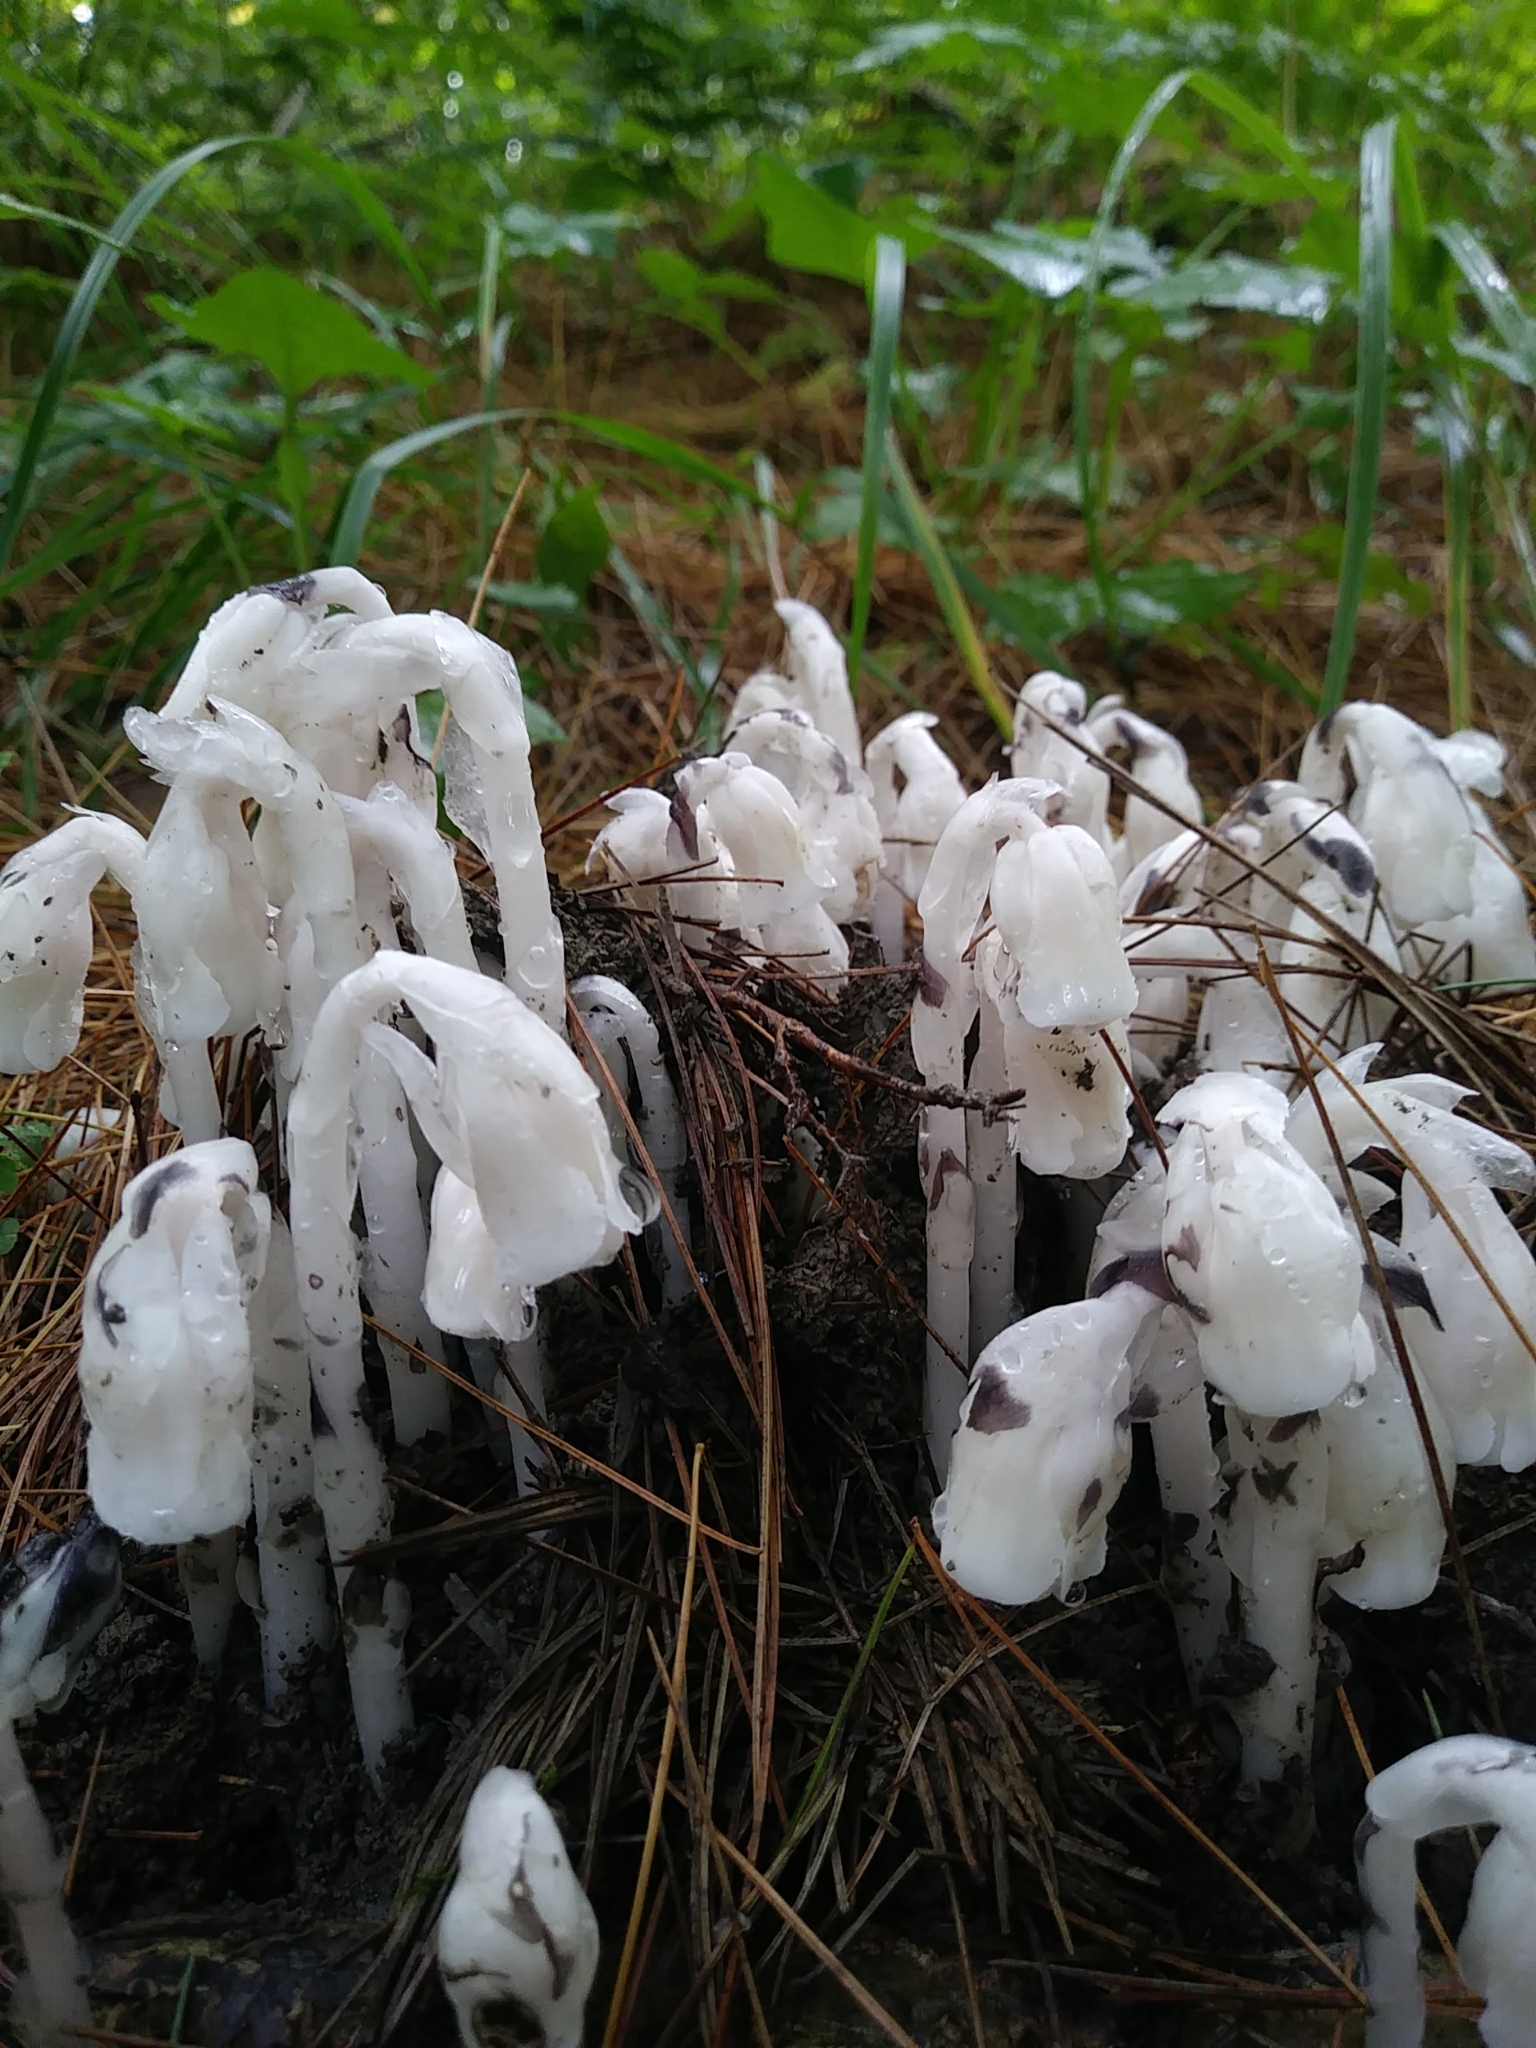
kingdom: Plantae
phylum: Tracheophyta
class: Magnoliopsida
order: Ericales
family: Ericaceae
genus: Monotropa
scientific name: Monotropa uniflora
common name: Convulsion root
